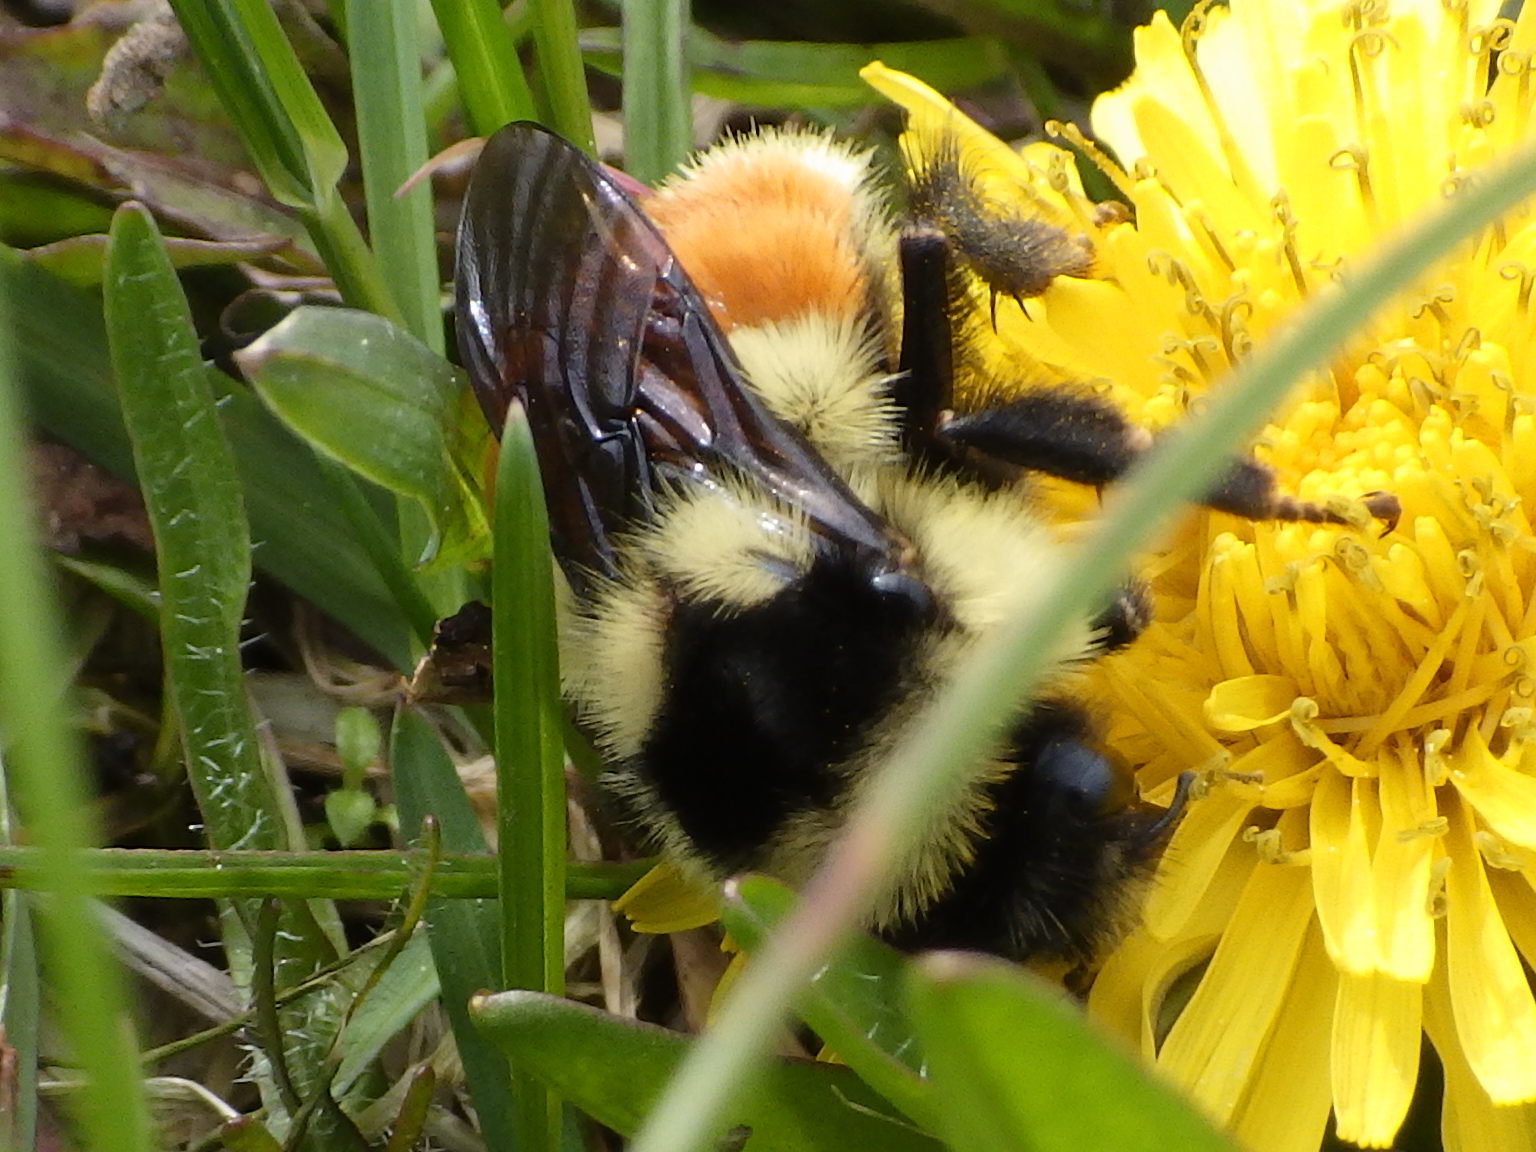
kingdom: Animalia
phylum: Arthropoda
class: Insecta
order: Hymenoptera
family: Apidae
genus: Bombus
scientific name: Bombus ternarius
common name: Tri-colored bumble bee
